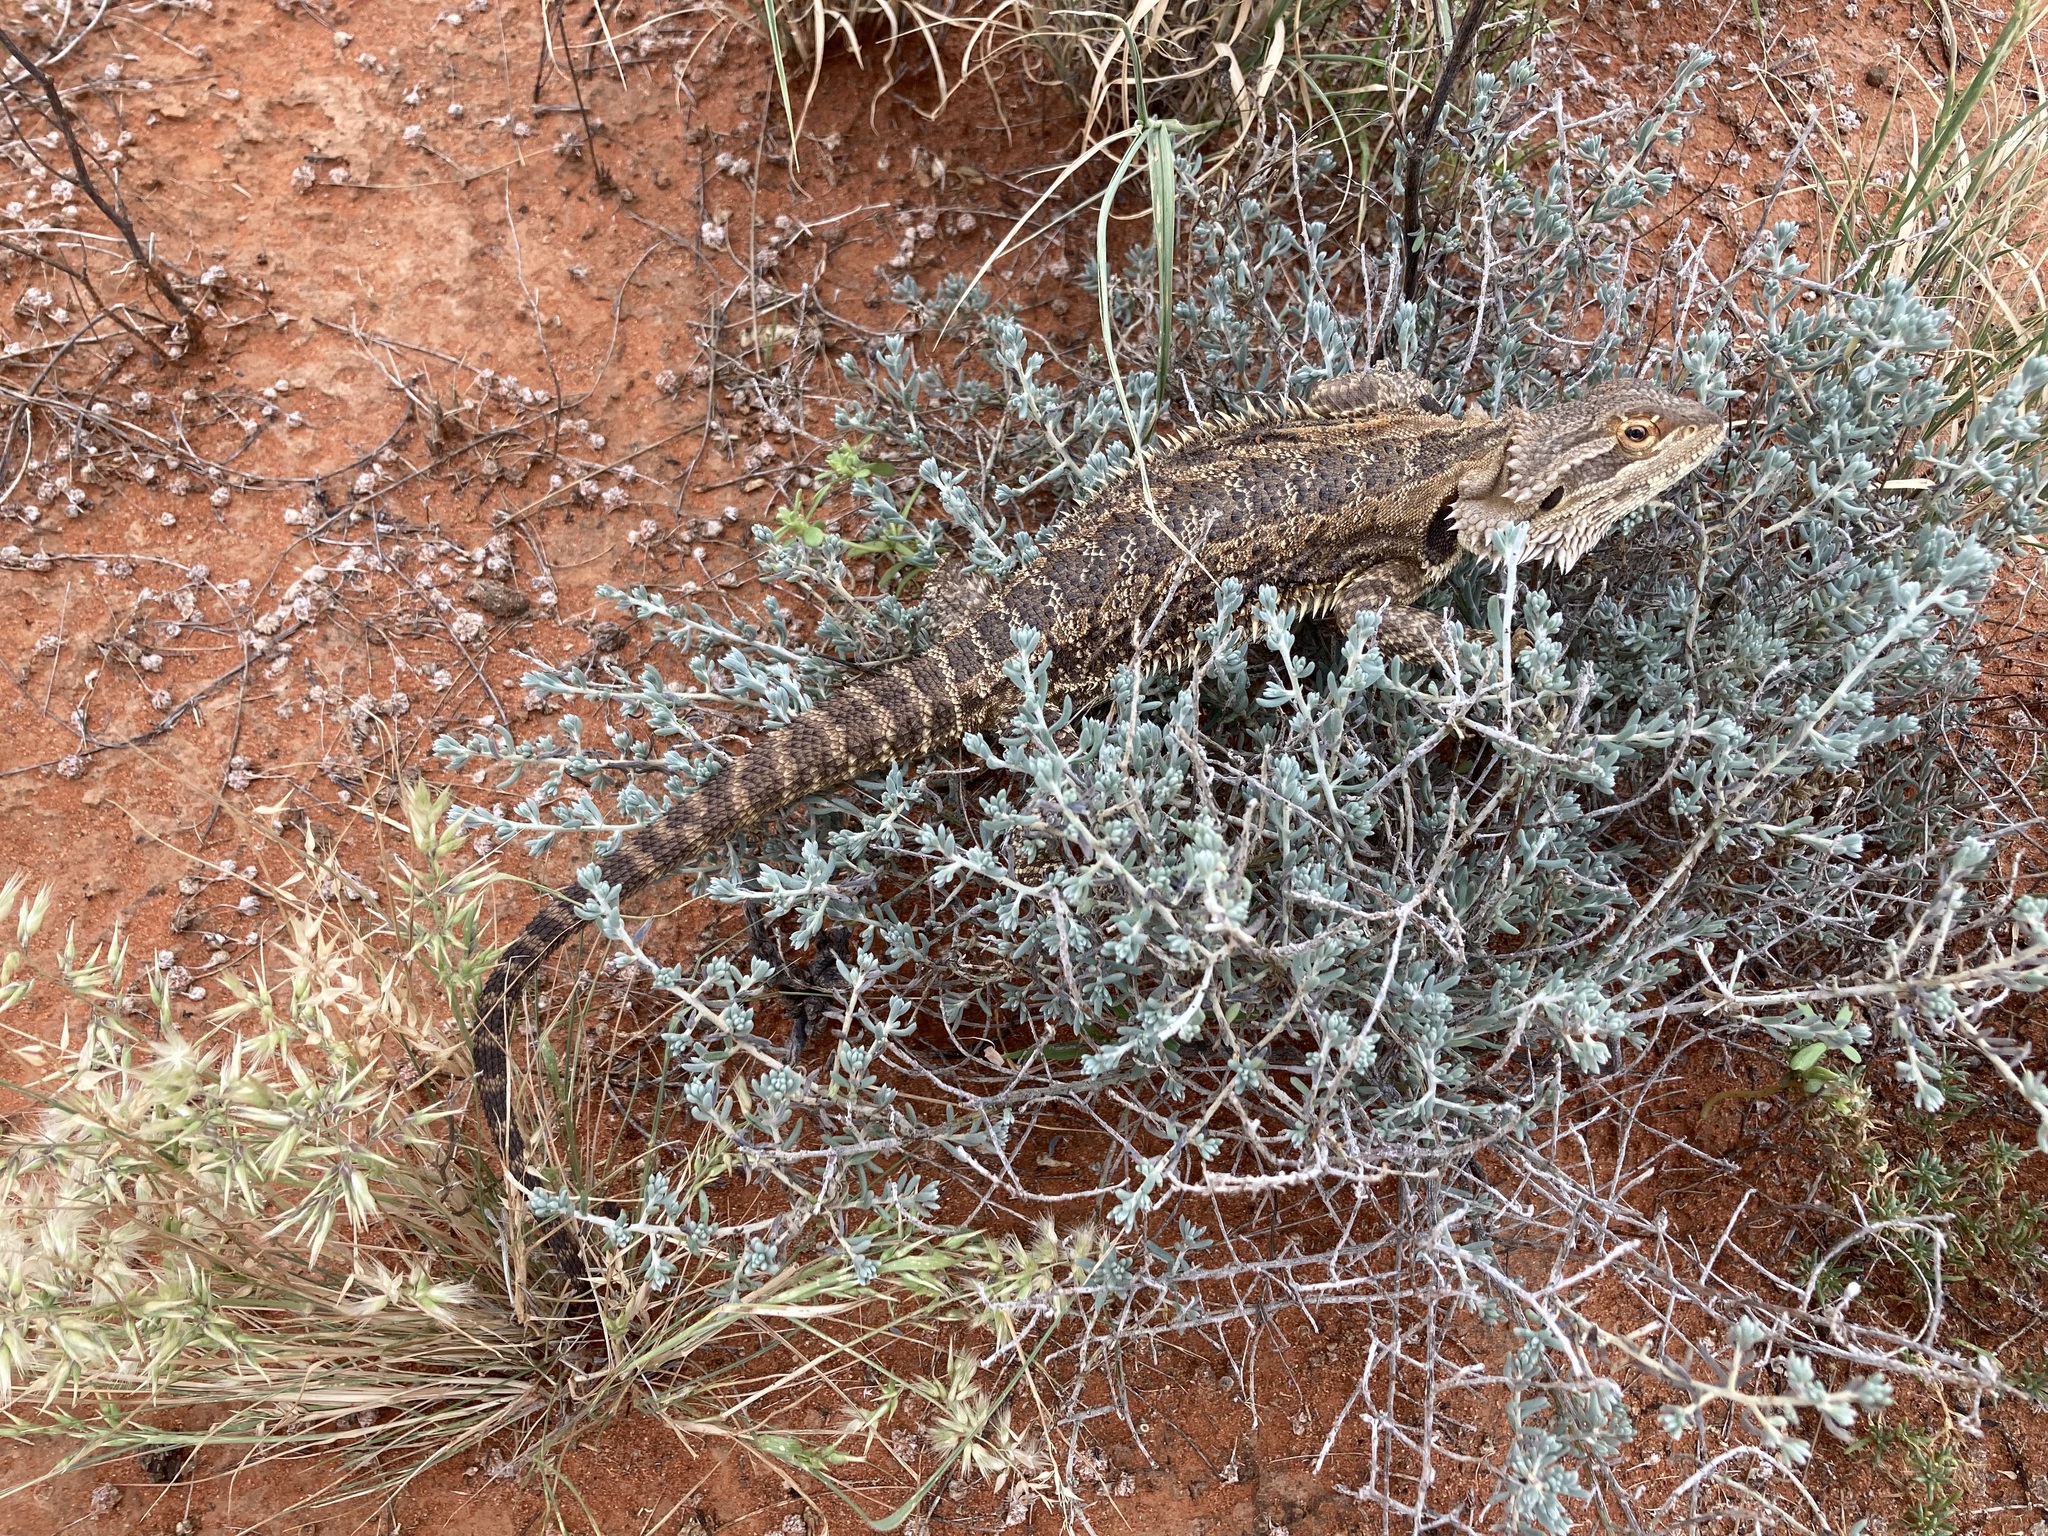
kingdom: Animalia
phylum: Chordata
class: Squamata
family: Agamidae
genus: Pogona
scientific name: Pogona vitticeps
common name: Central bearded dragon
